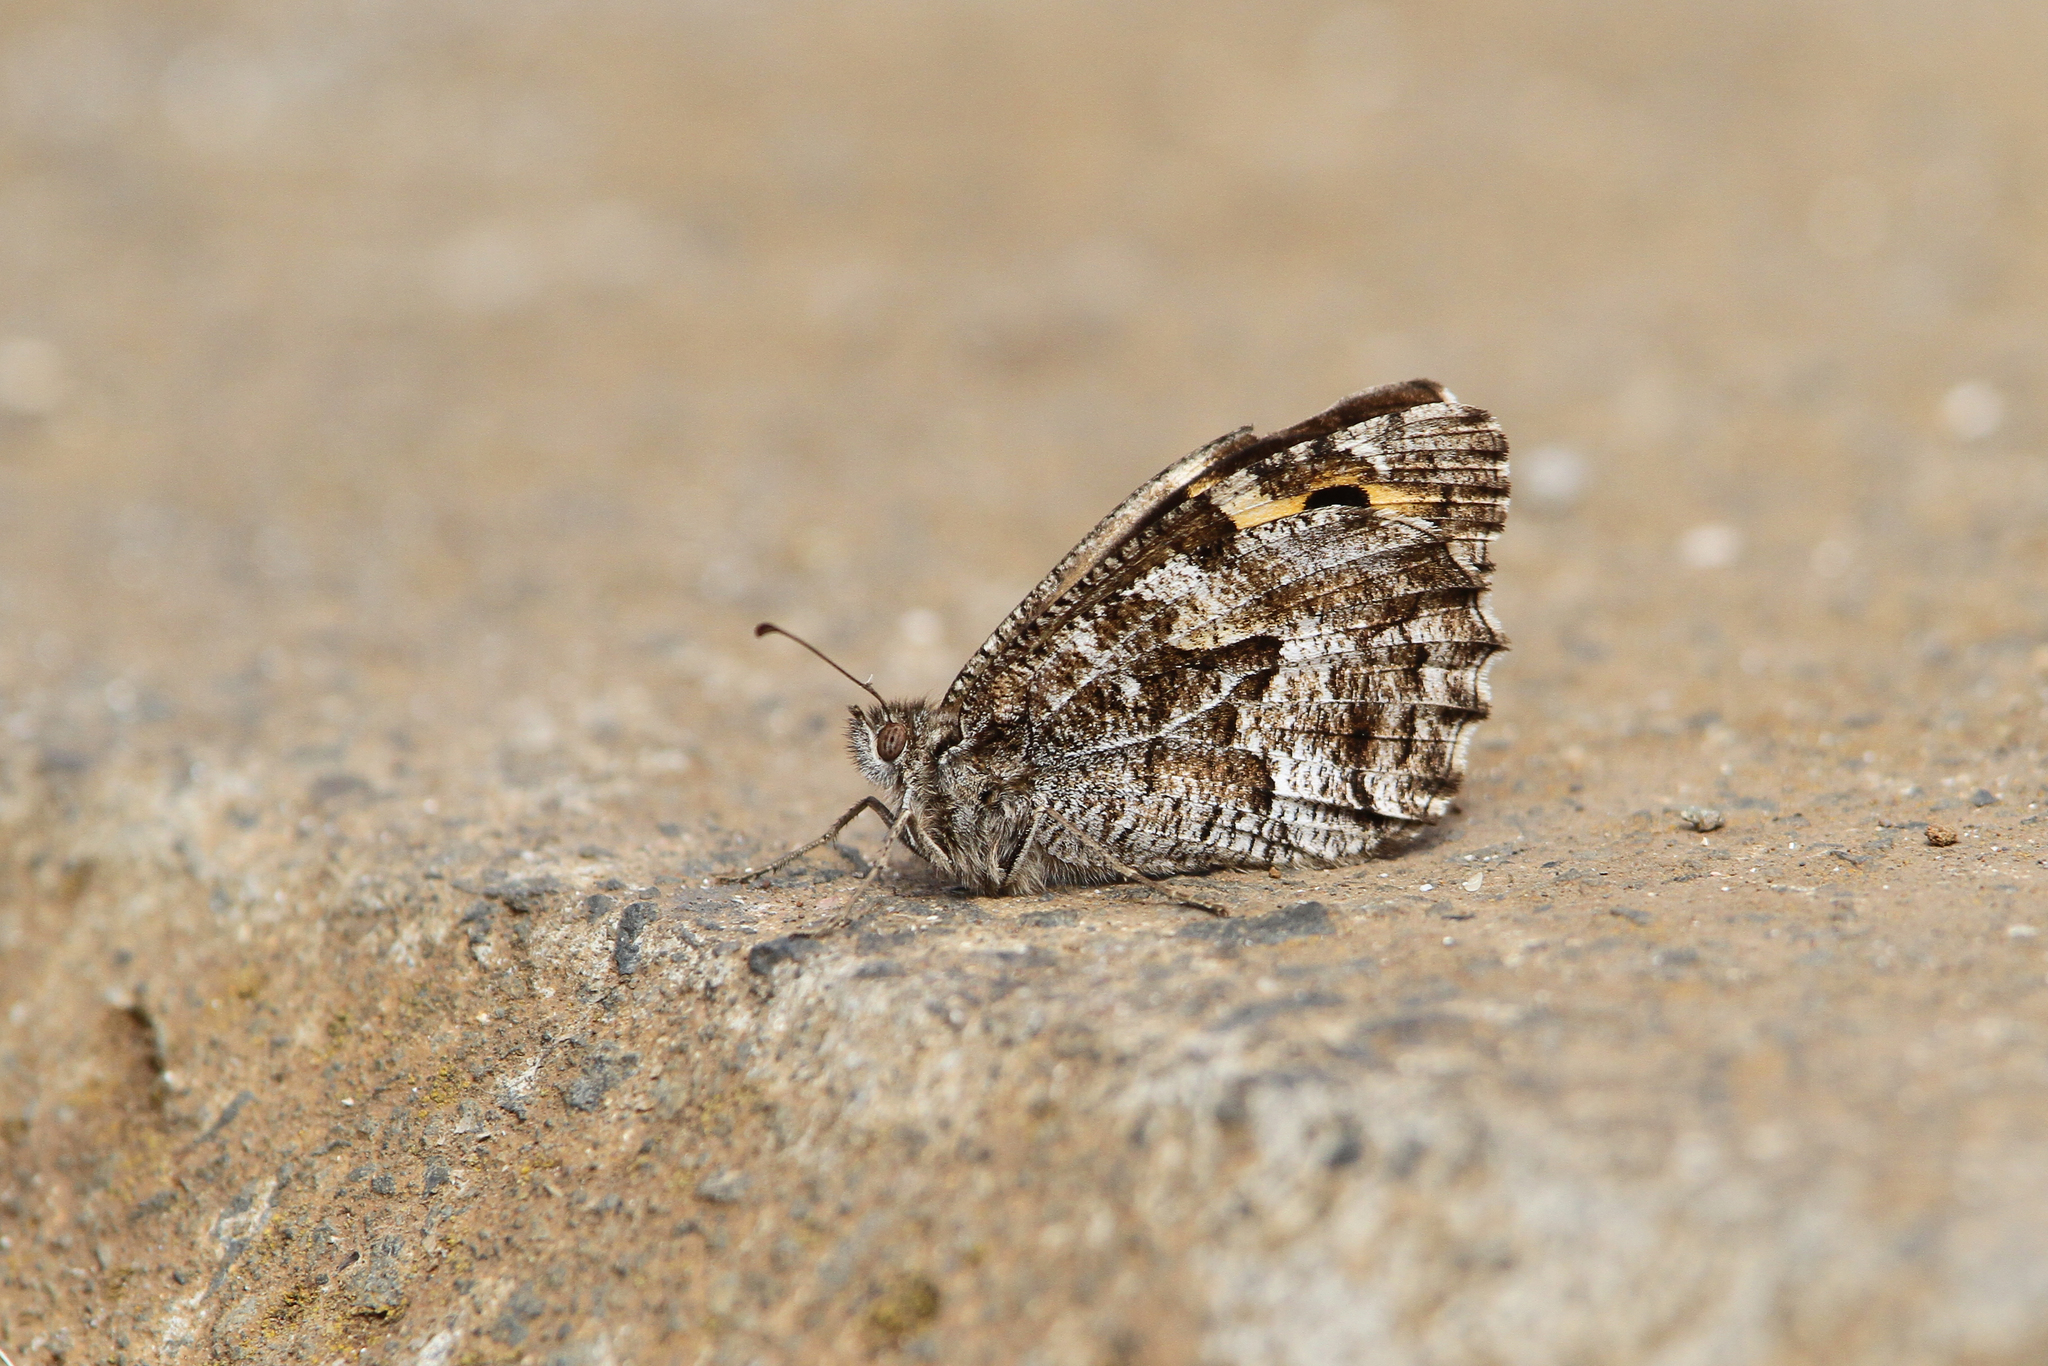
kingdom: Animalia
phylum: Arthropoda
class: Insecta
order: Lepidoptera
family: Nymphalidae
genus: Hipparchia
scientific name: Hipparchia algirica
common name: Mountain grayling
